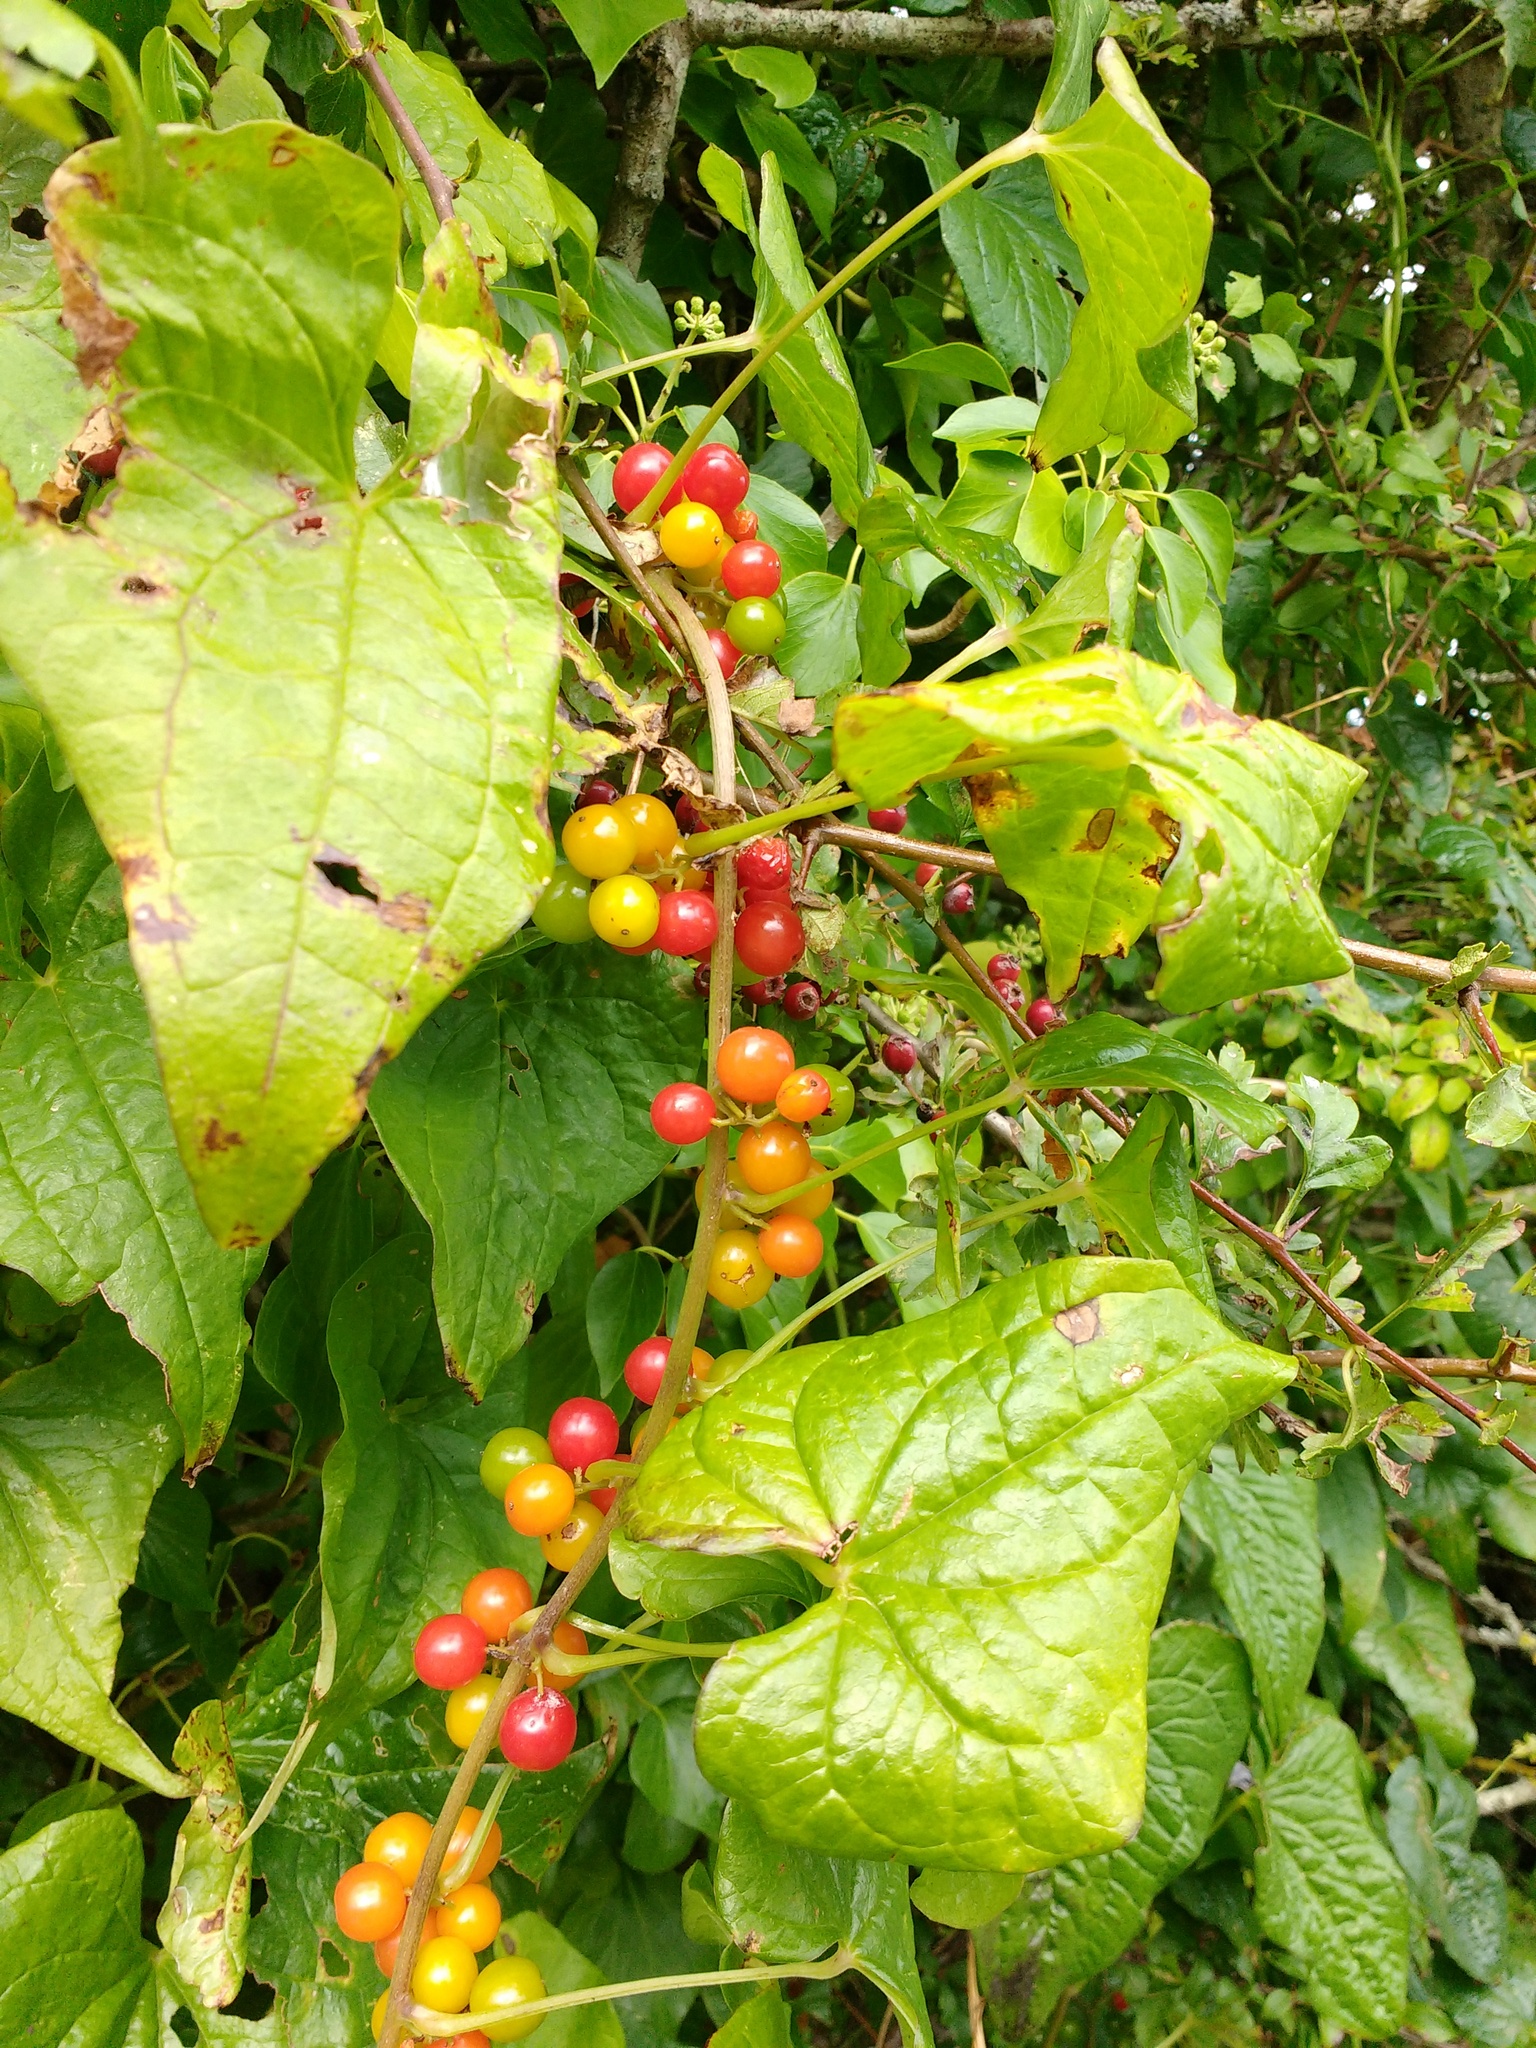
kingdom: Plantae
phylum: Tracheophyta
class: Liliopsida
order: Dioscoreales
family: Dioscoreaceae
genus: Dioscorea
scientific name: Dioscorea communis
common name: Black-bindweed
